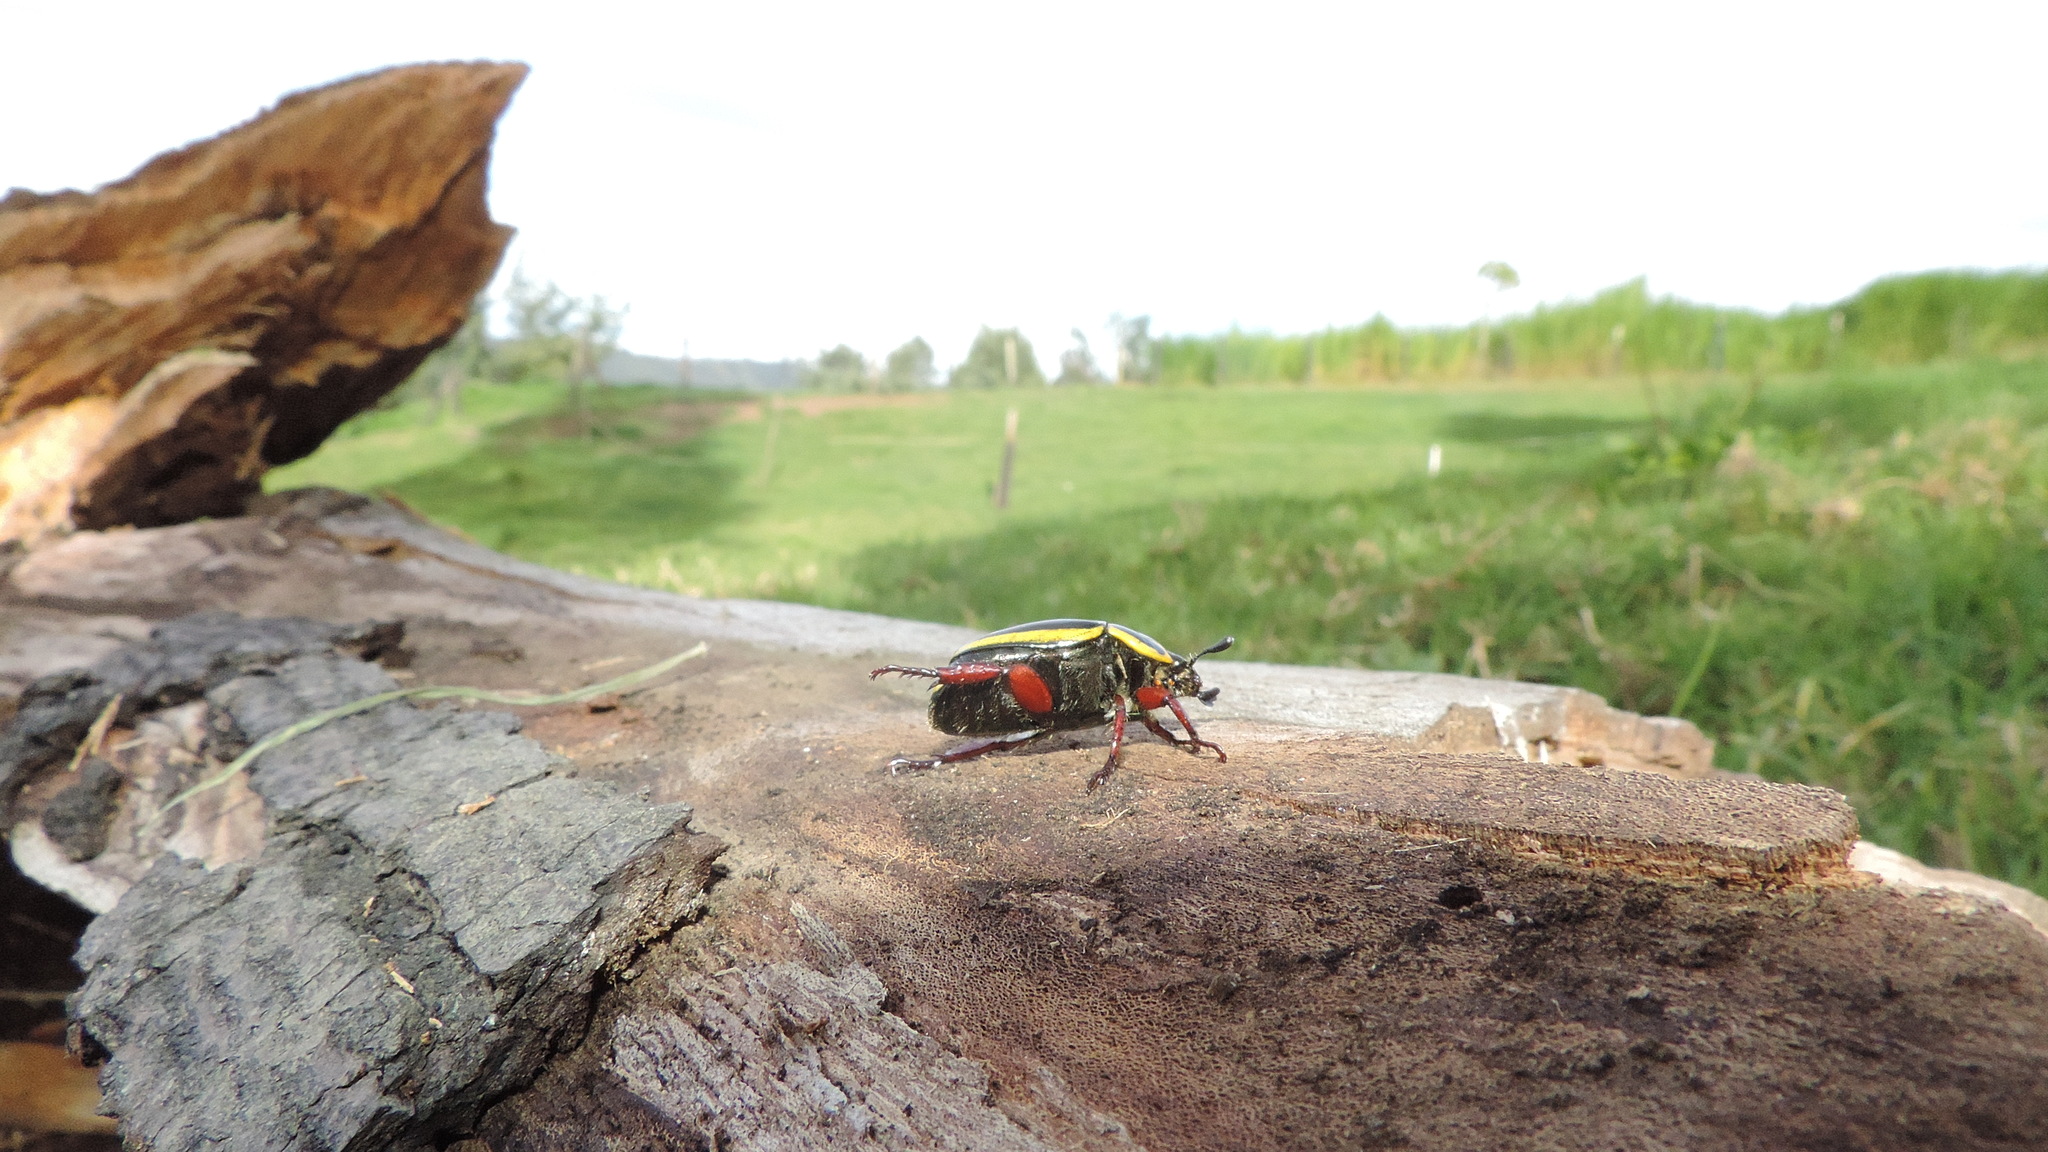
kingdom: Animalia
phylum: Arthropoda
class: Insecta
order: Coleoptera
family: Scarabaeidae
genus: Macraspis
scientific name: Macraspis jamesi
